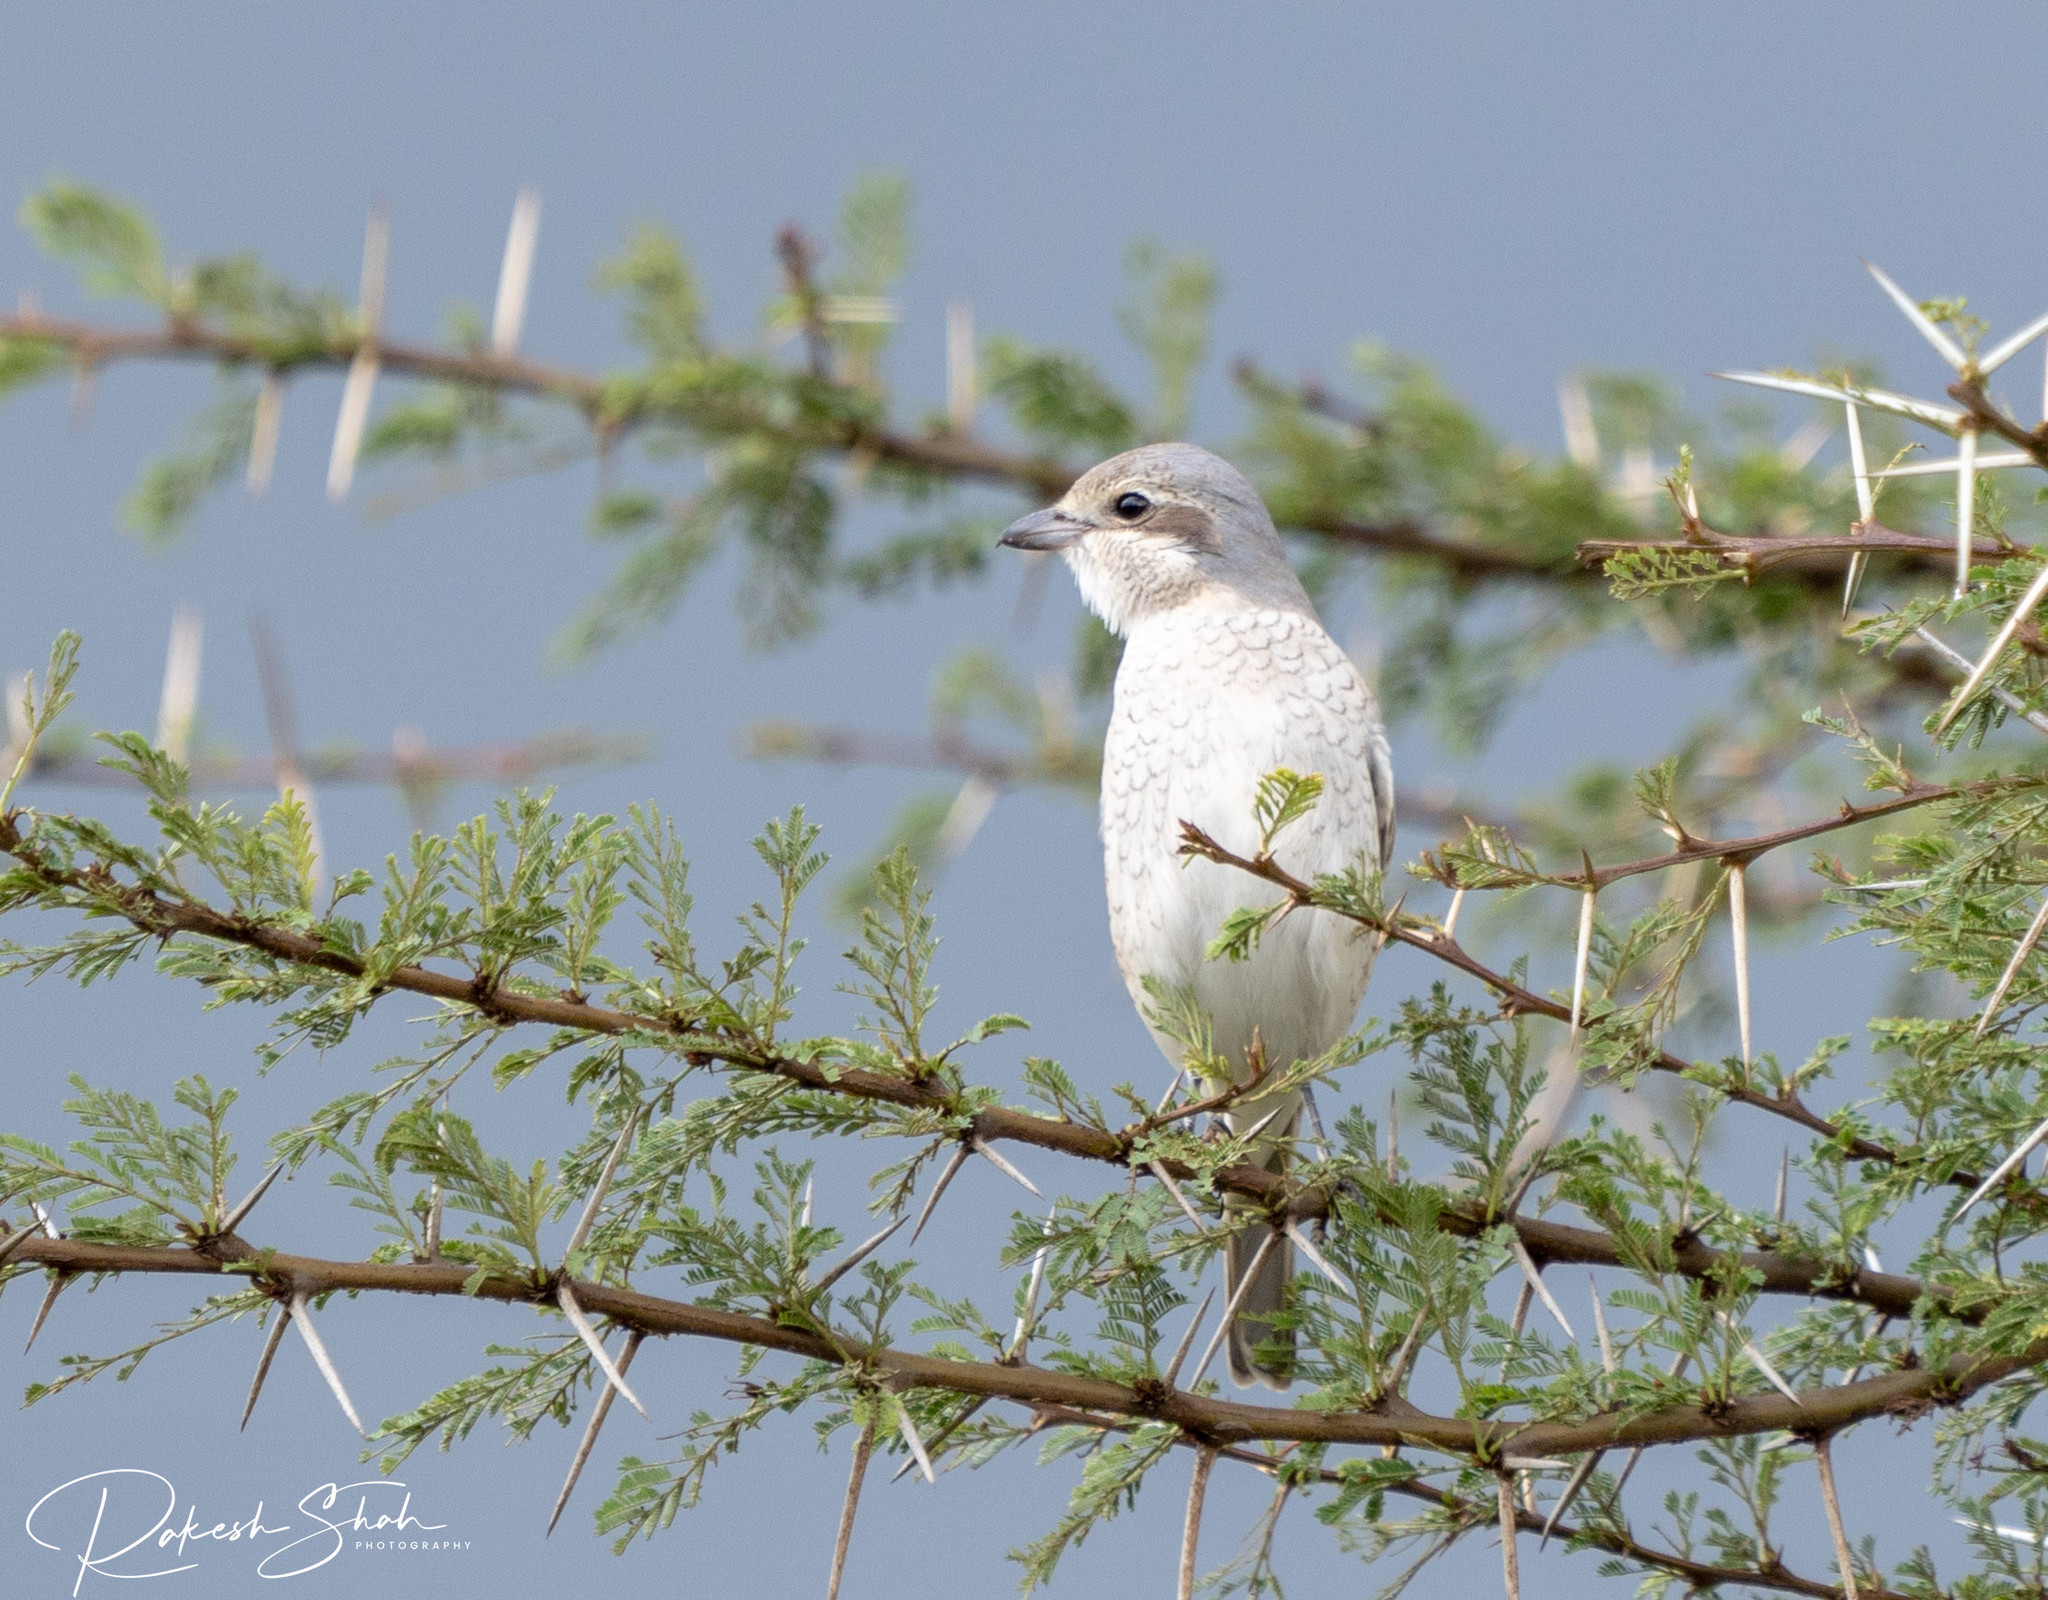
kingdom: Animalia
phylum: Chordata
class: Aves
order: Passeriformes
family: Laniidae
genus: Lanius
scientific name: Lanius collurio
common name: Red-backed shrike
